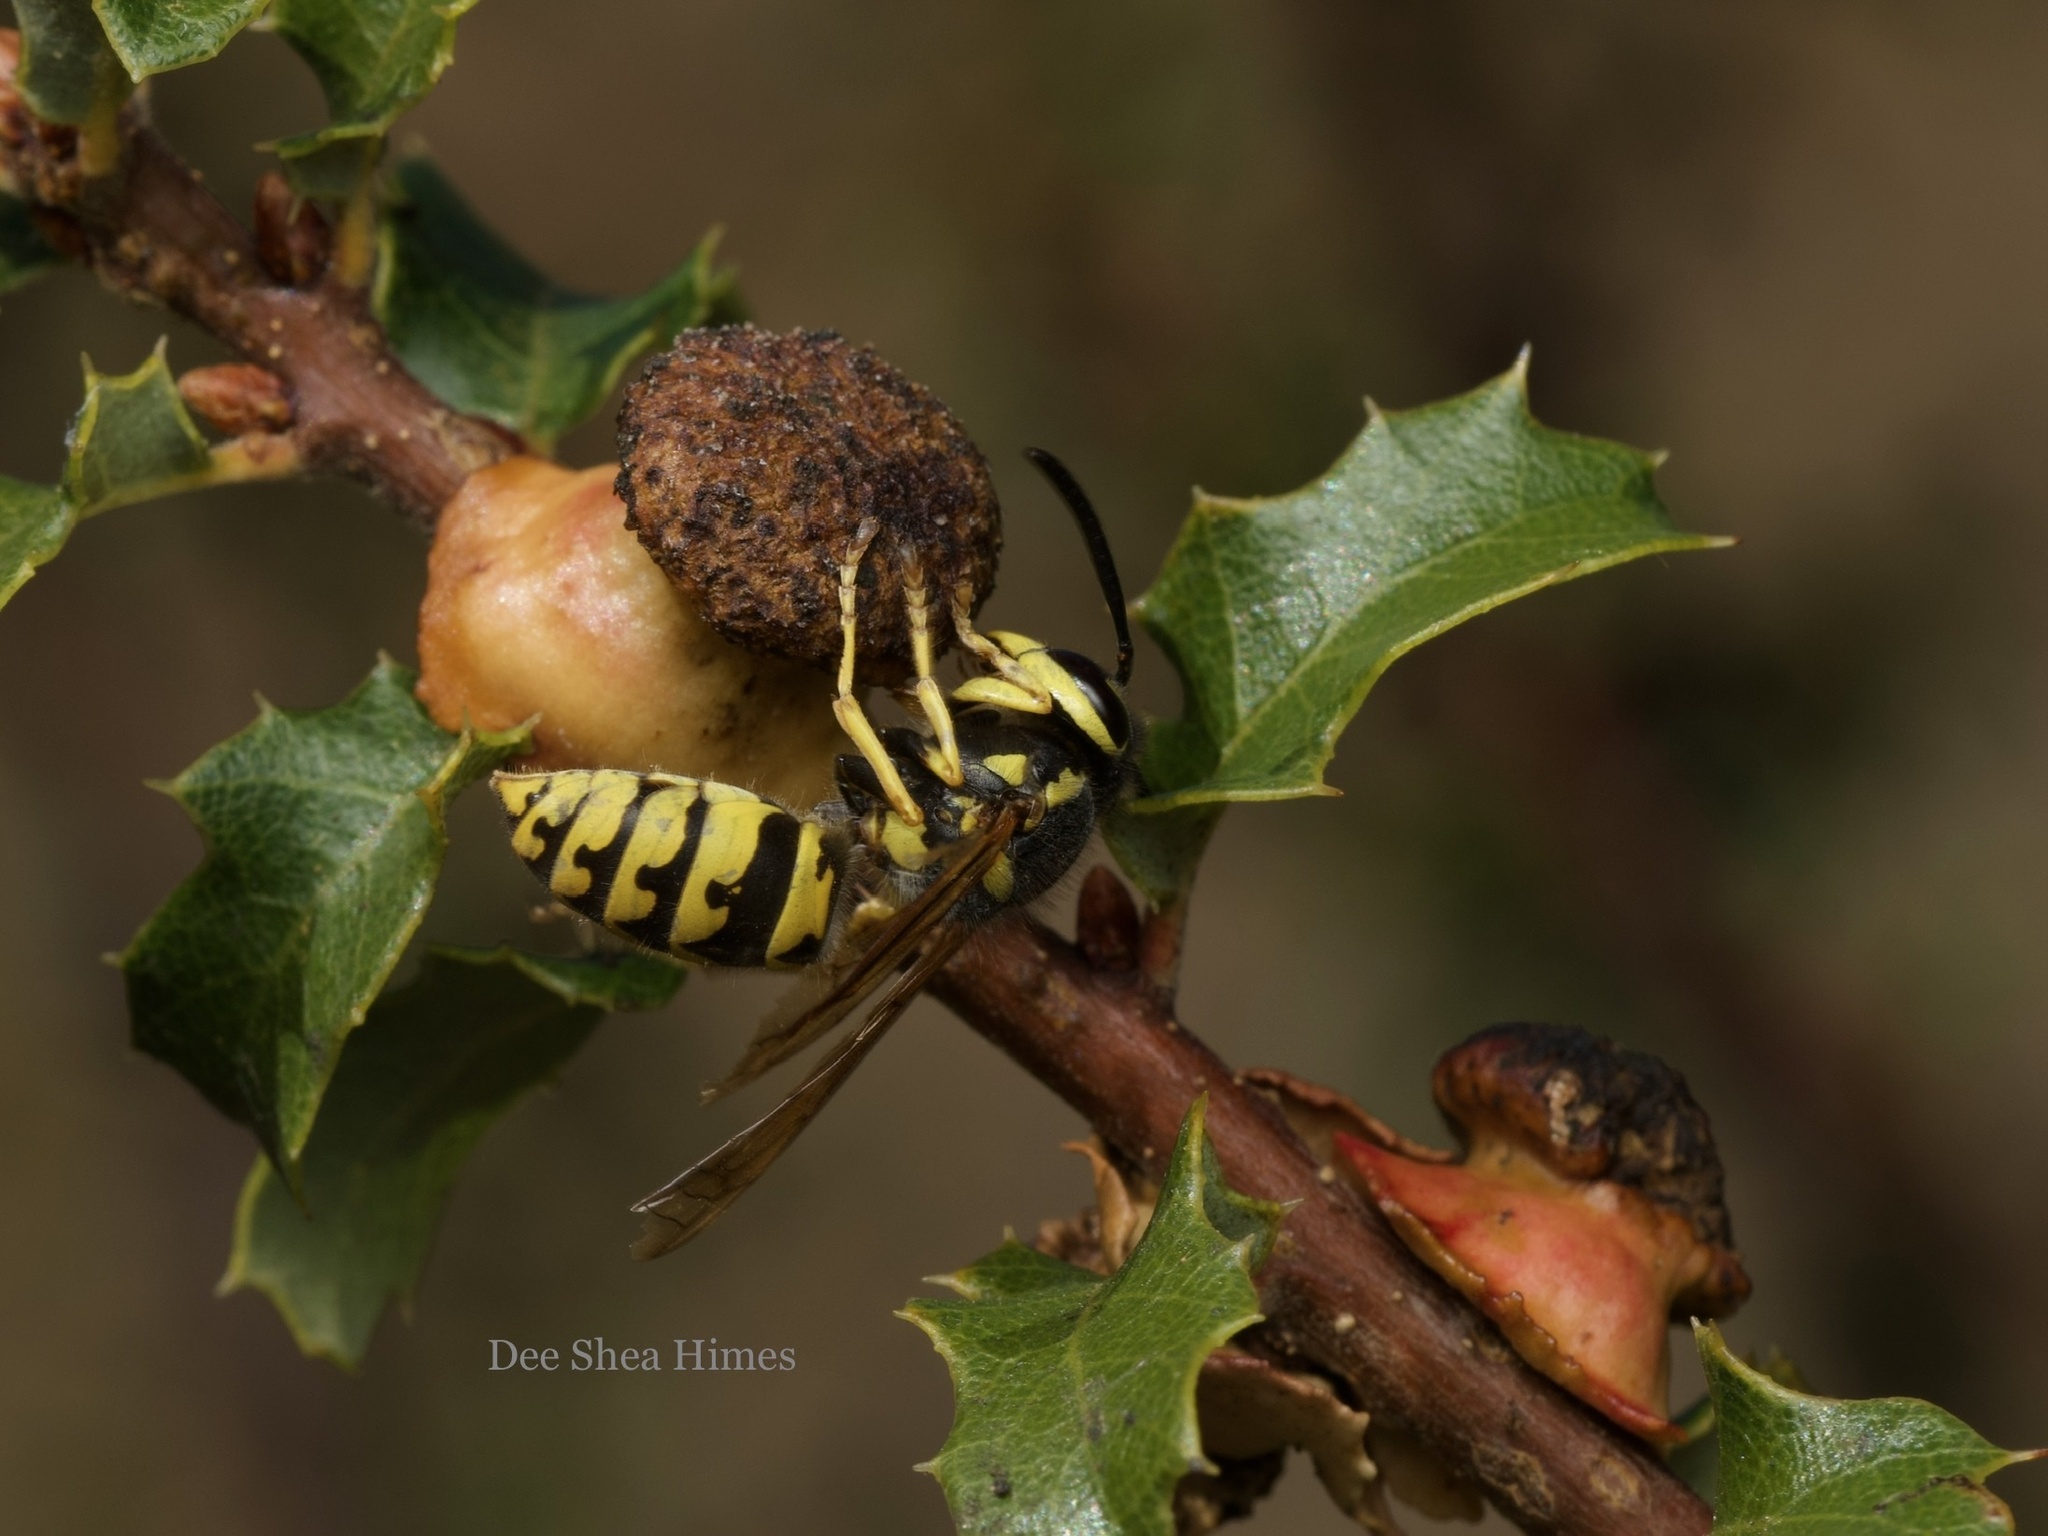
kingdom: Animalia
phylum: Arthropoda
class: Insecta
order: Hymenoptera
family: Vespidae
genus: Vespula
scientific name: Vespula pensylvanica
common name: Western yellowjacket
